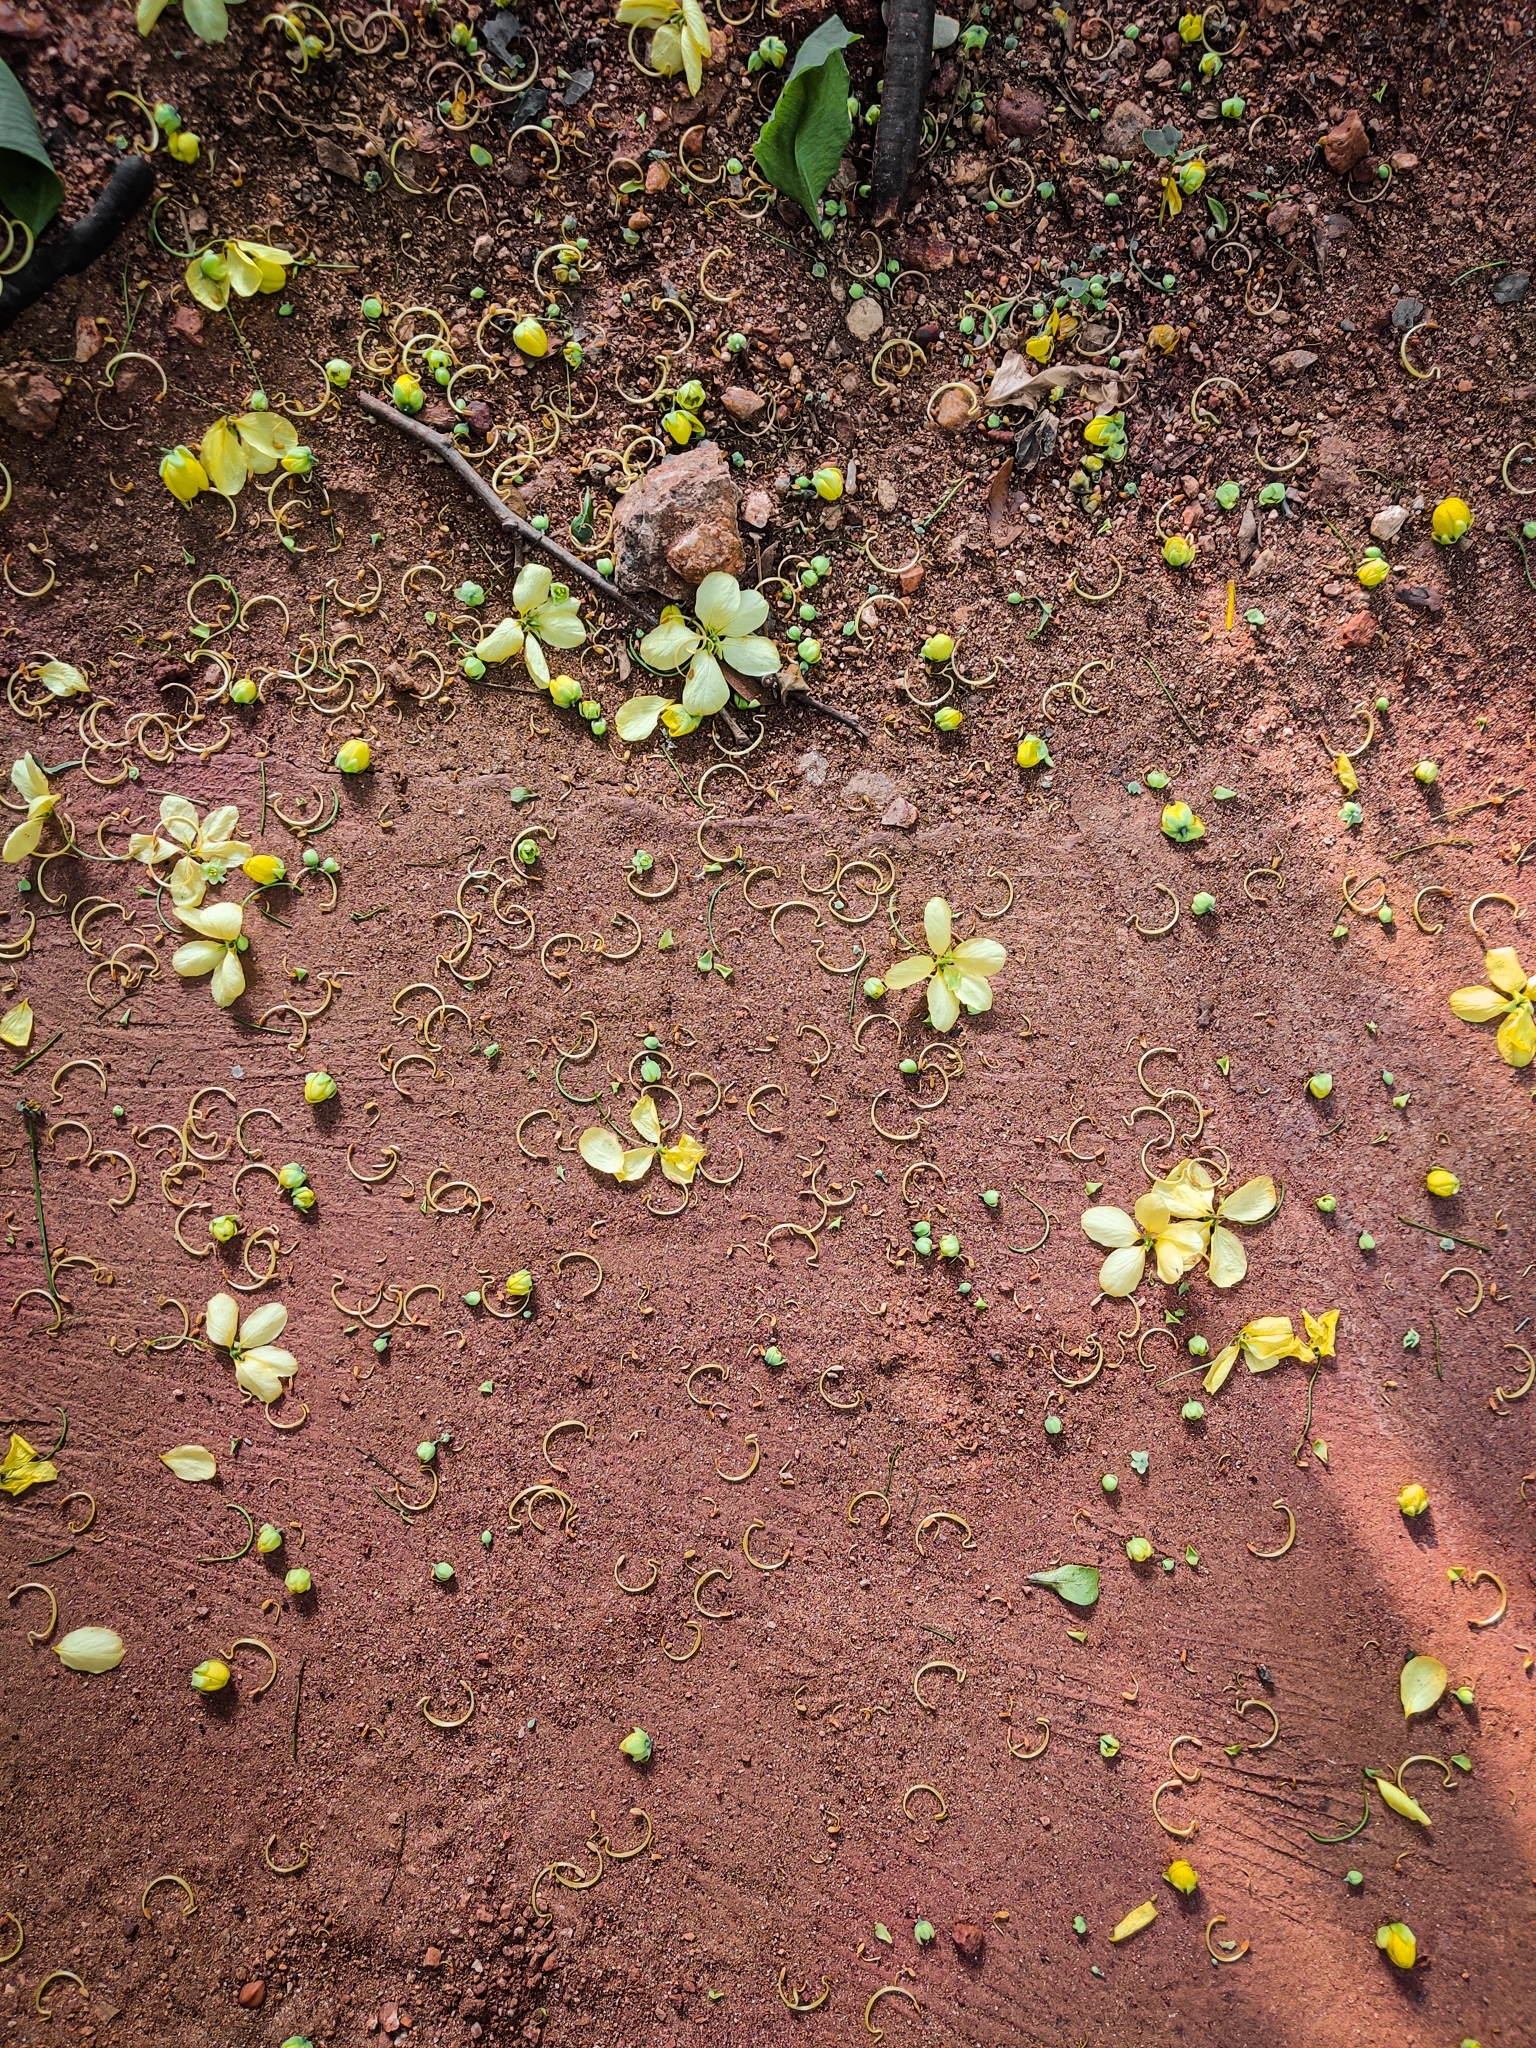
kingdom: Plantae
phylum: Tracheophyta
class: Magnoliopsida
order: Fabales
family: Fabaceae
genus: Cassia
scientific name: Cassia fistula
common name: Golden shower
